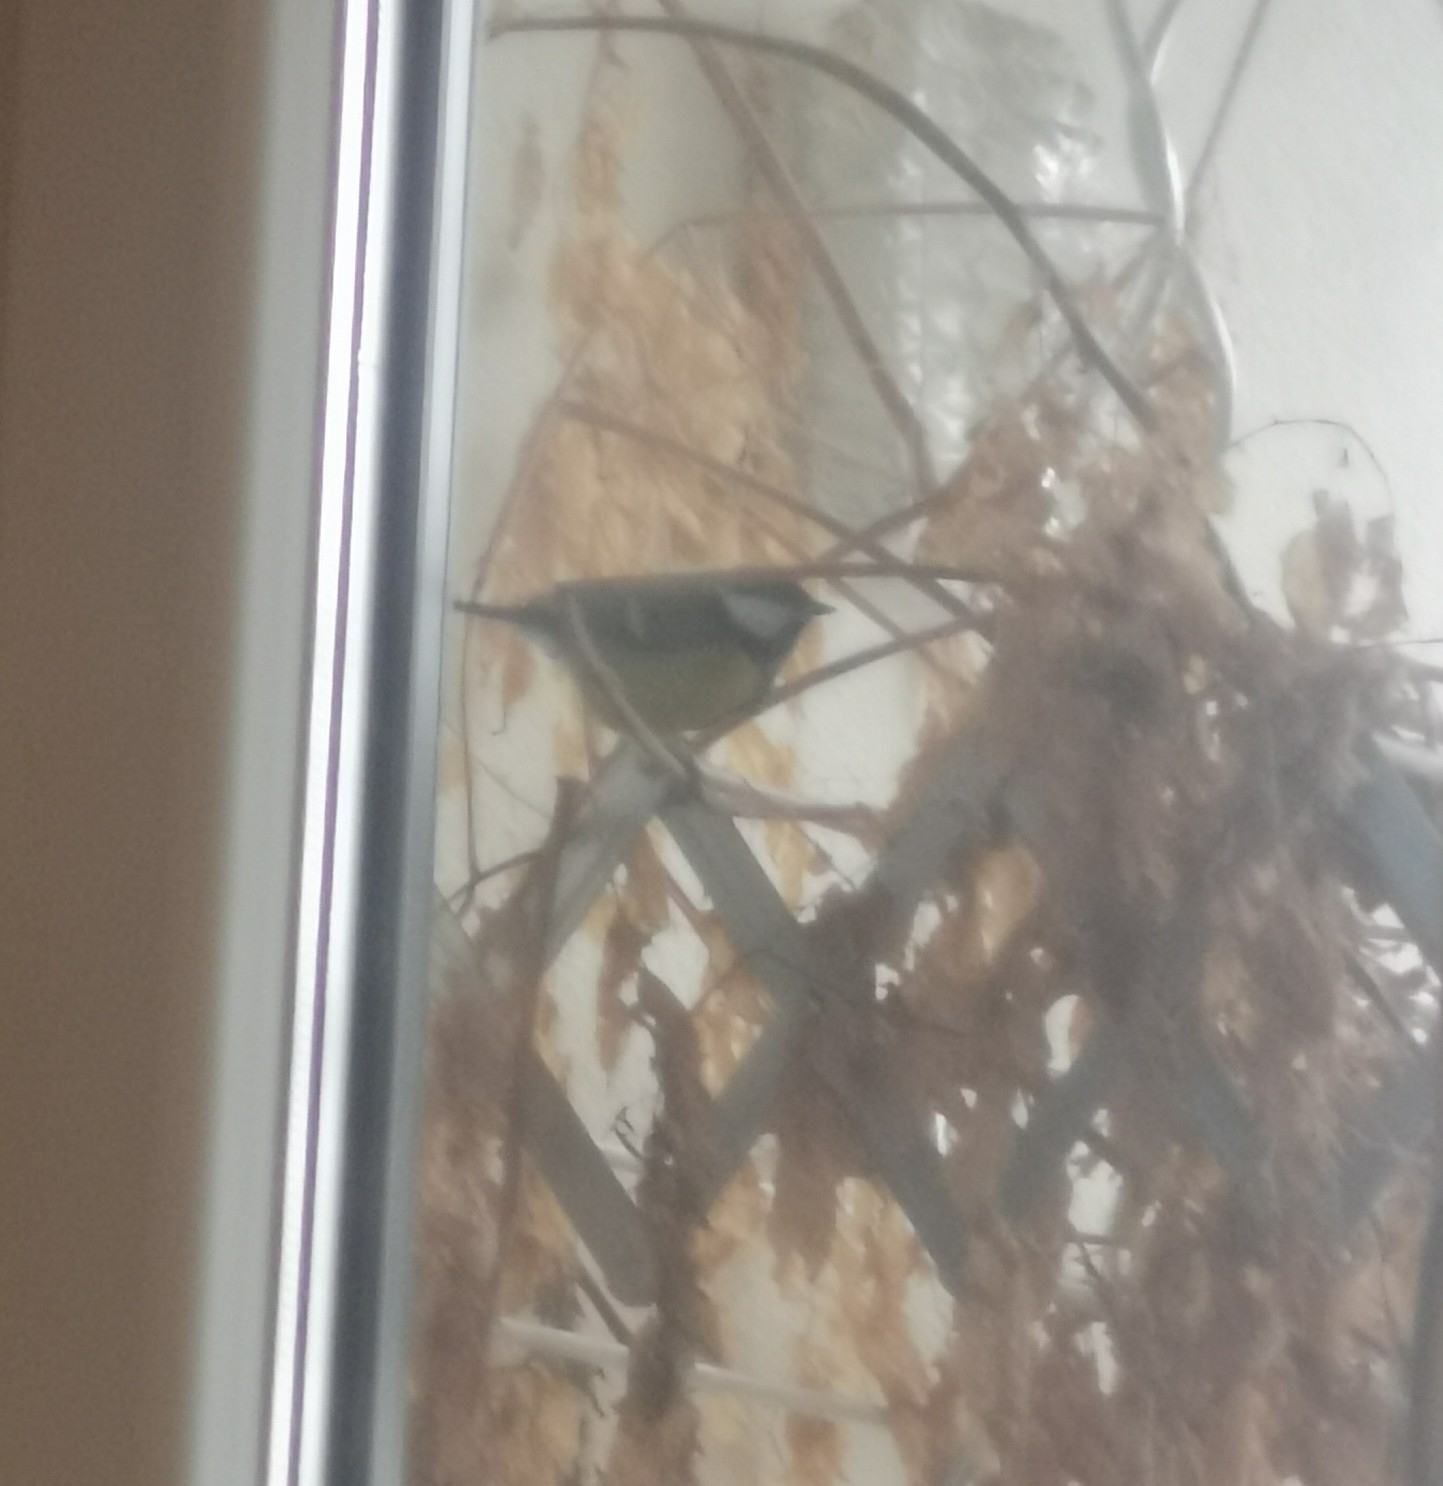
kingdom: Animalia
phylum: Chordata
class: Aves
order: Passeriformes
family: Paridae
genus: Parus
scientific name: Parus major
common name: Great tit
